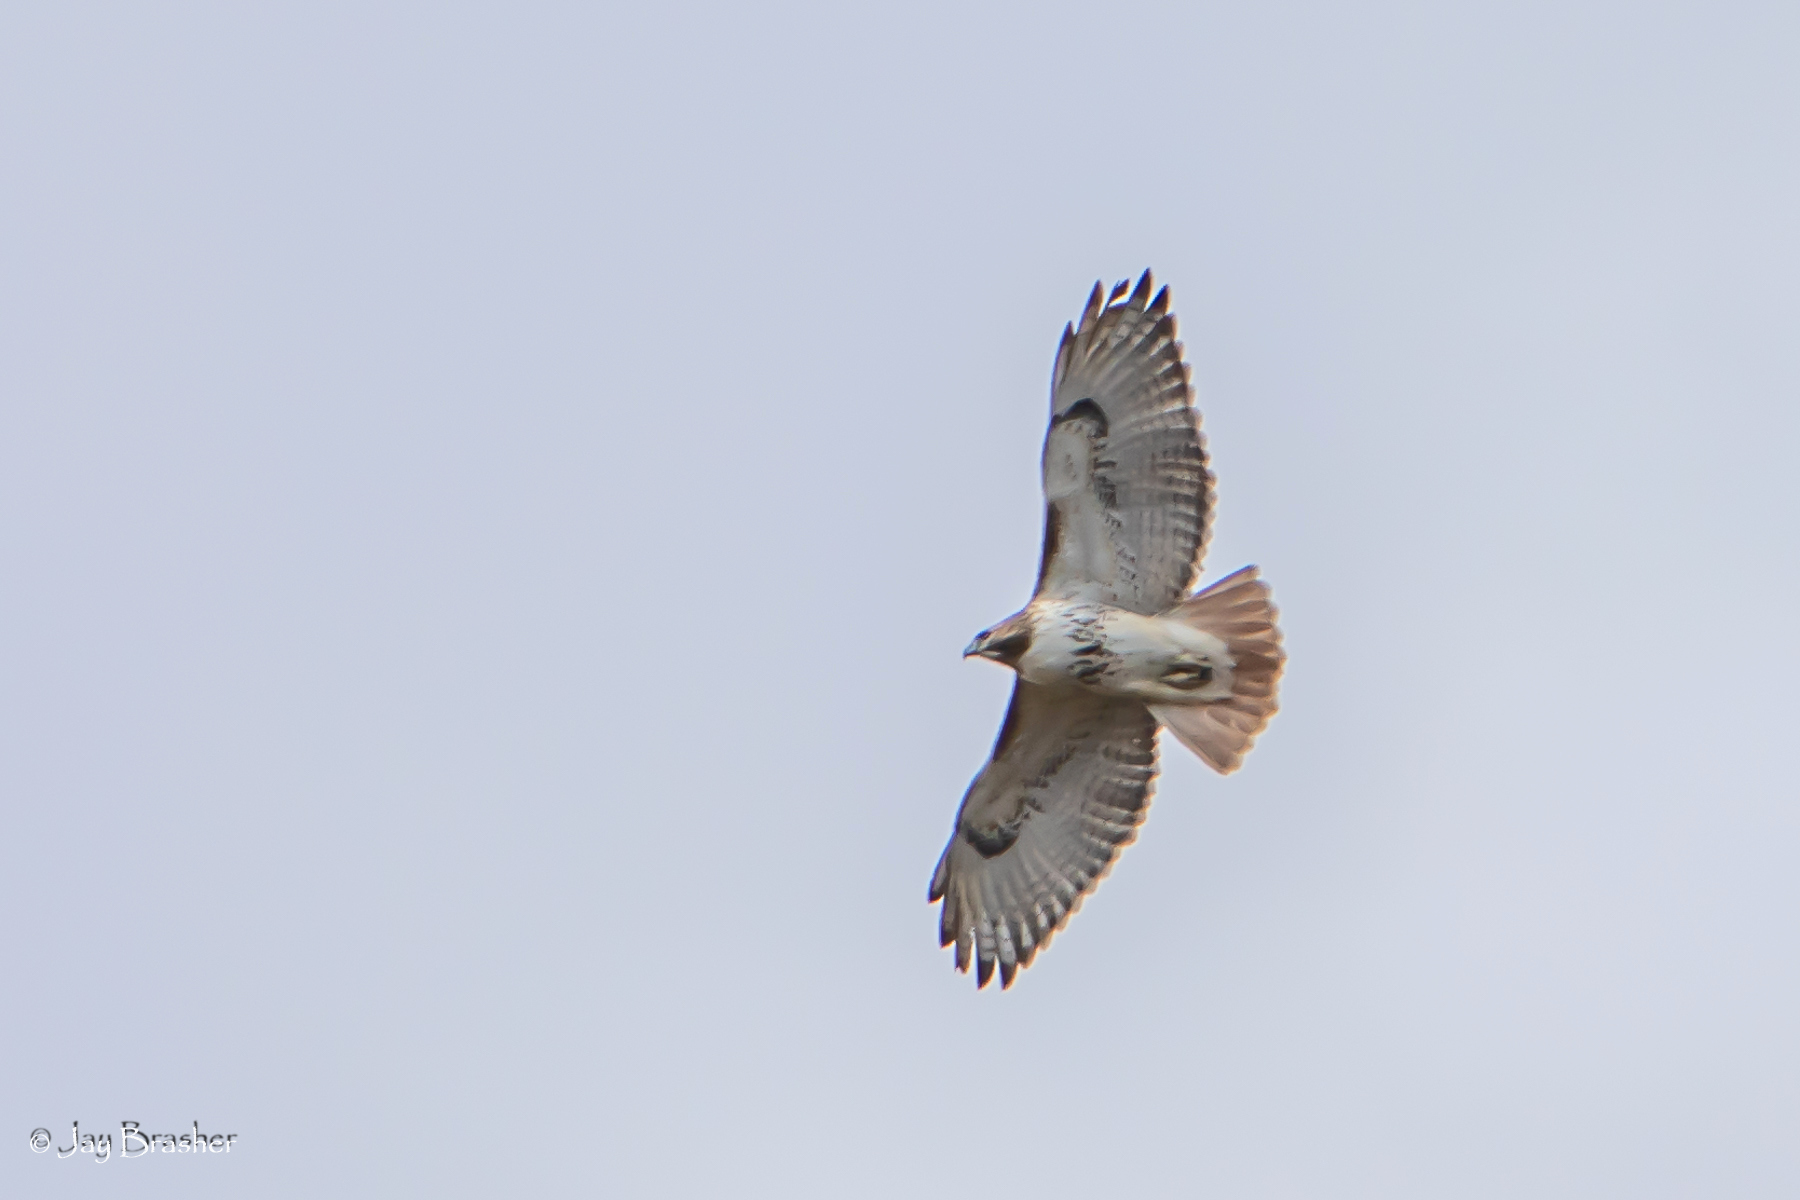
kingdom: Animalia
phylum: Chordata
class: Aves
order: Accipitriformes
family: Accipitridae
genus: Buteo
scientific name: Buteo jamaicensis
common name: Red-tailed hawk
